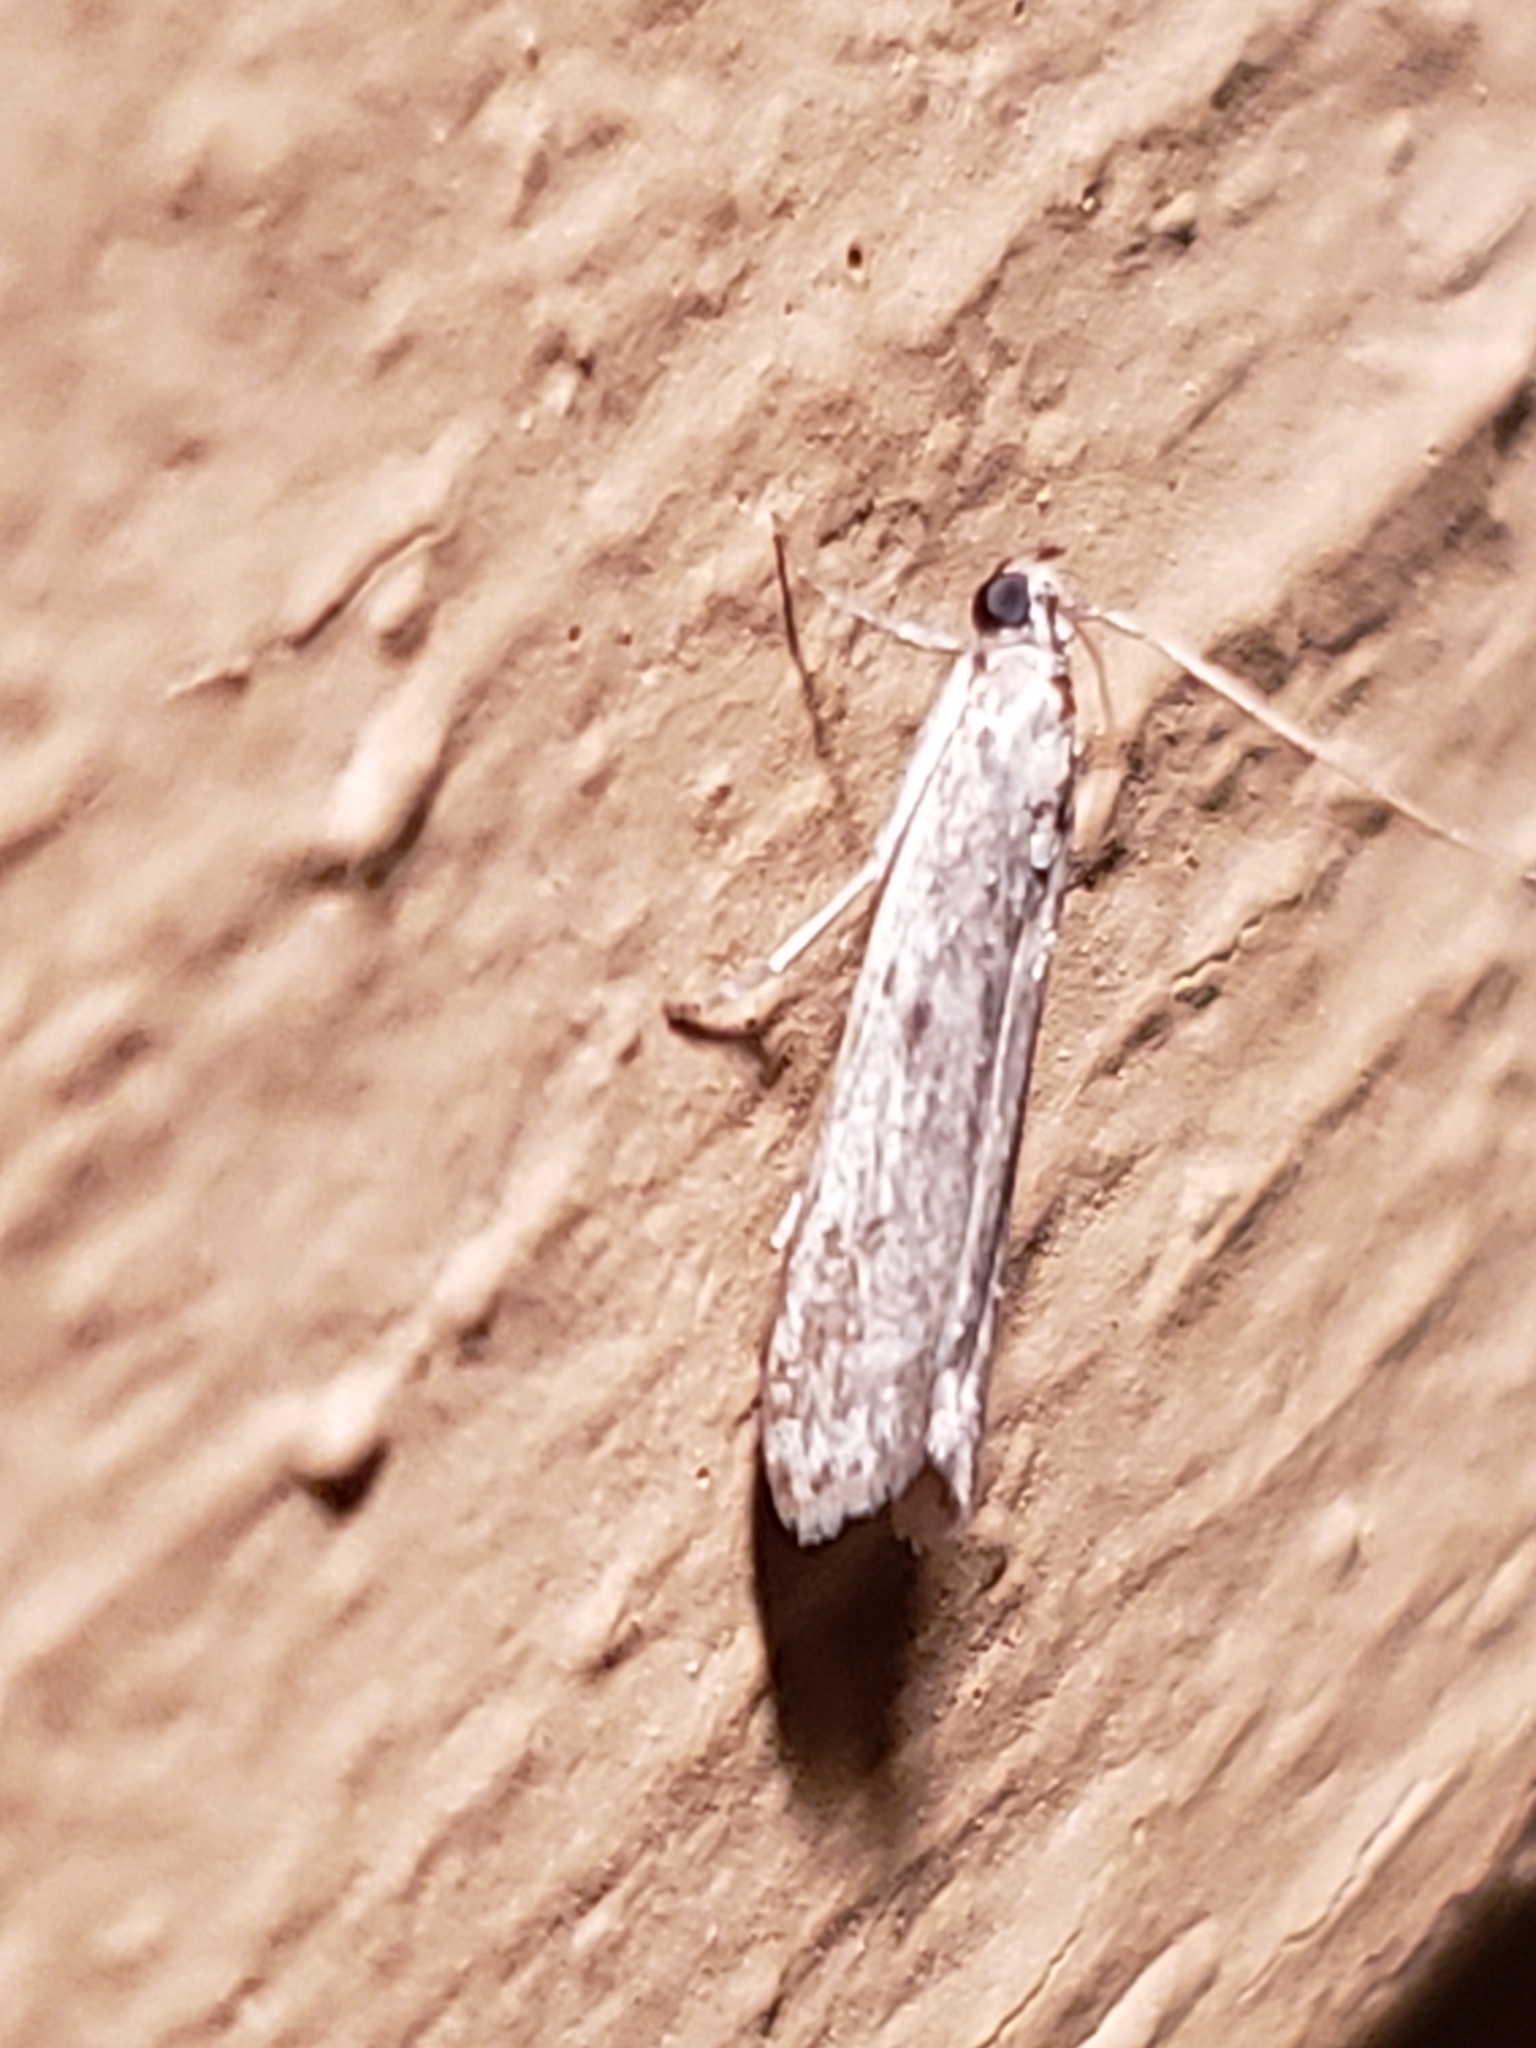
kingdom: Animalia
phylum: Arthropoda
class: Insecta
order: Lepidoptera
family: Pyralidae
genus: Homoeosoma
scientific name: Homoeosoma electella
